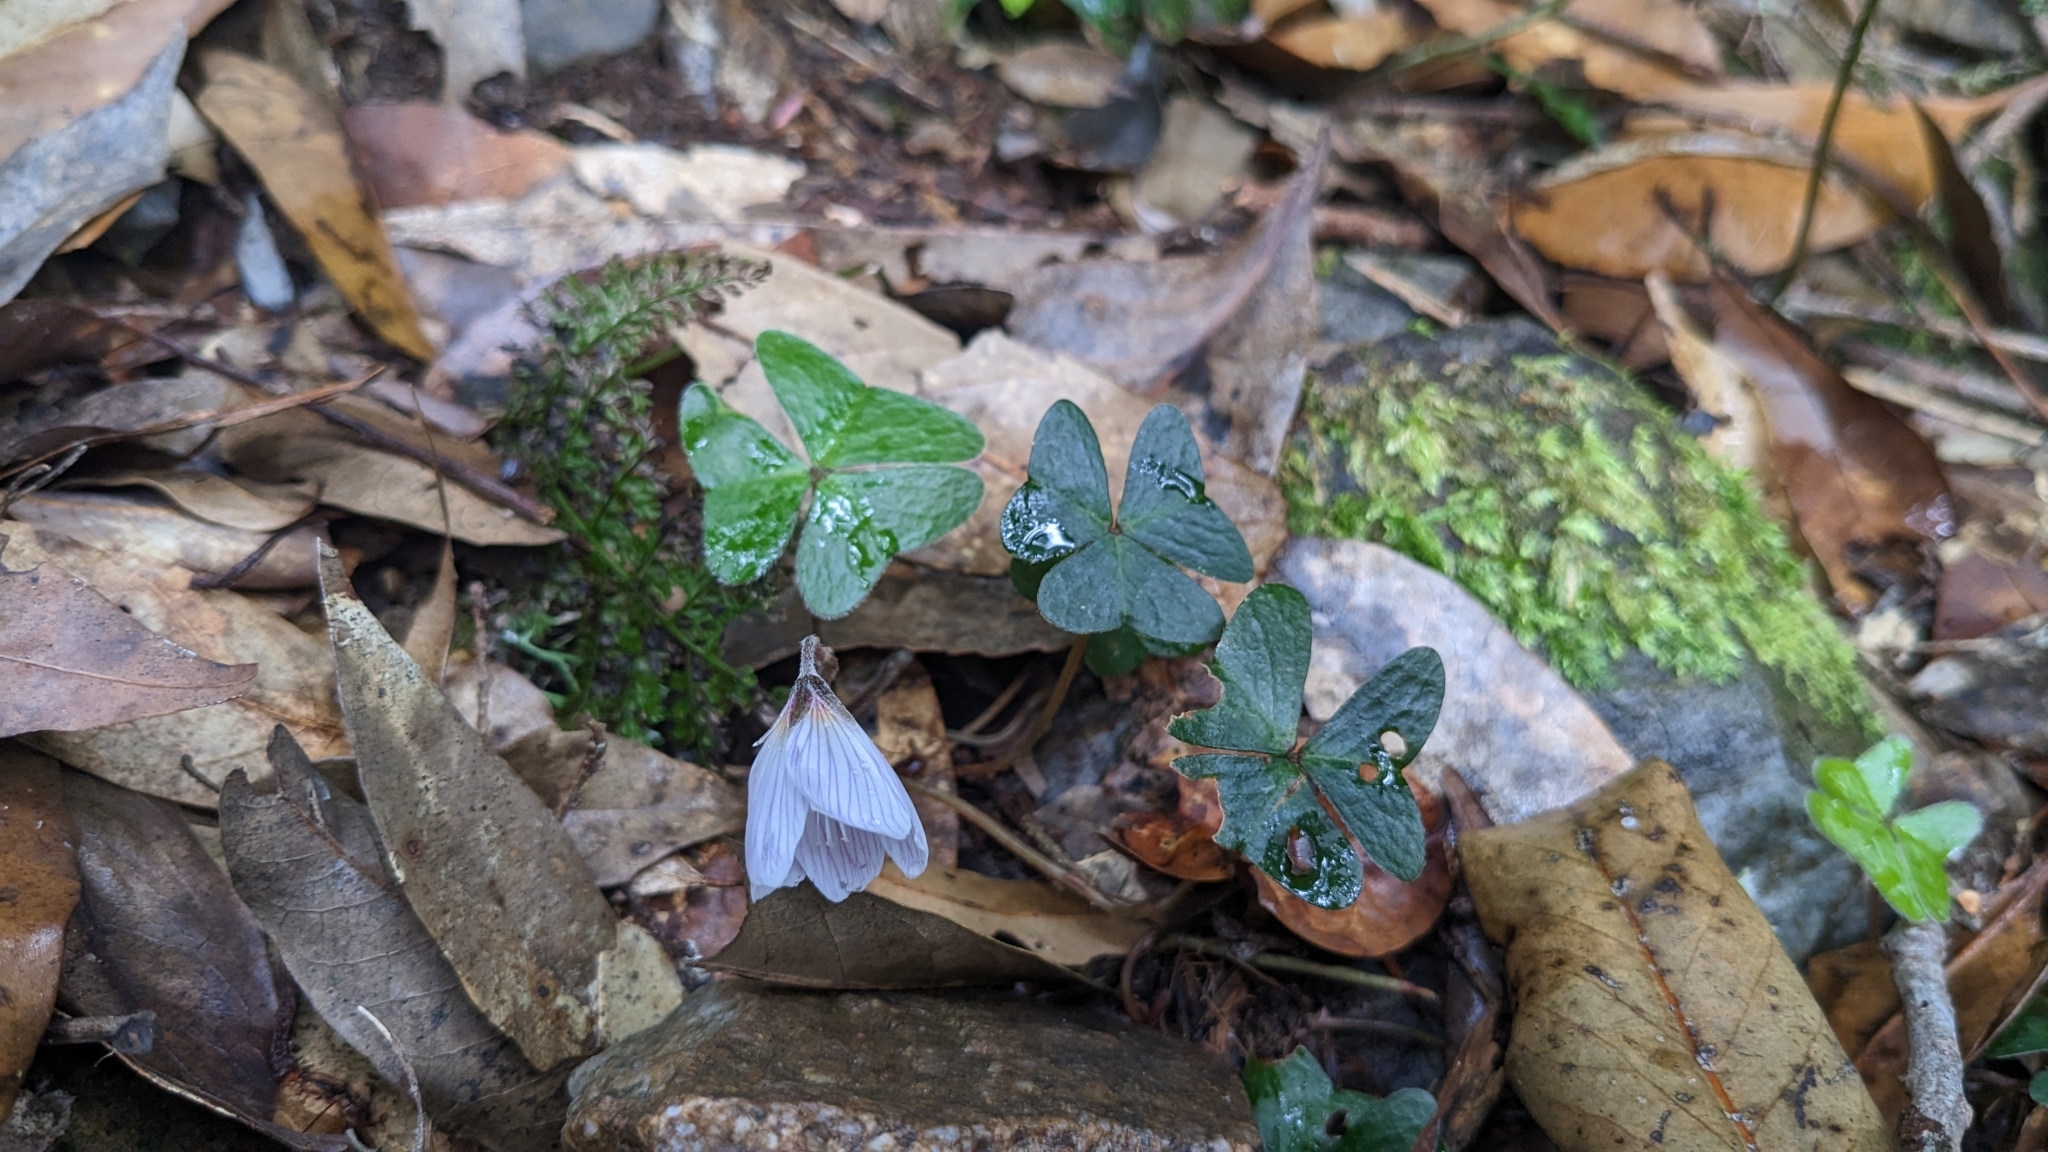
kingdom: Plantae
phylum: Tracheophyta
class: Magnoliopsida
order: Oxalidales
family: Oxalidaceae
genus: Oxalis
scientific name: Oxalis griffithii
